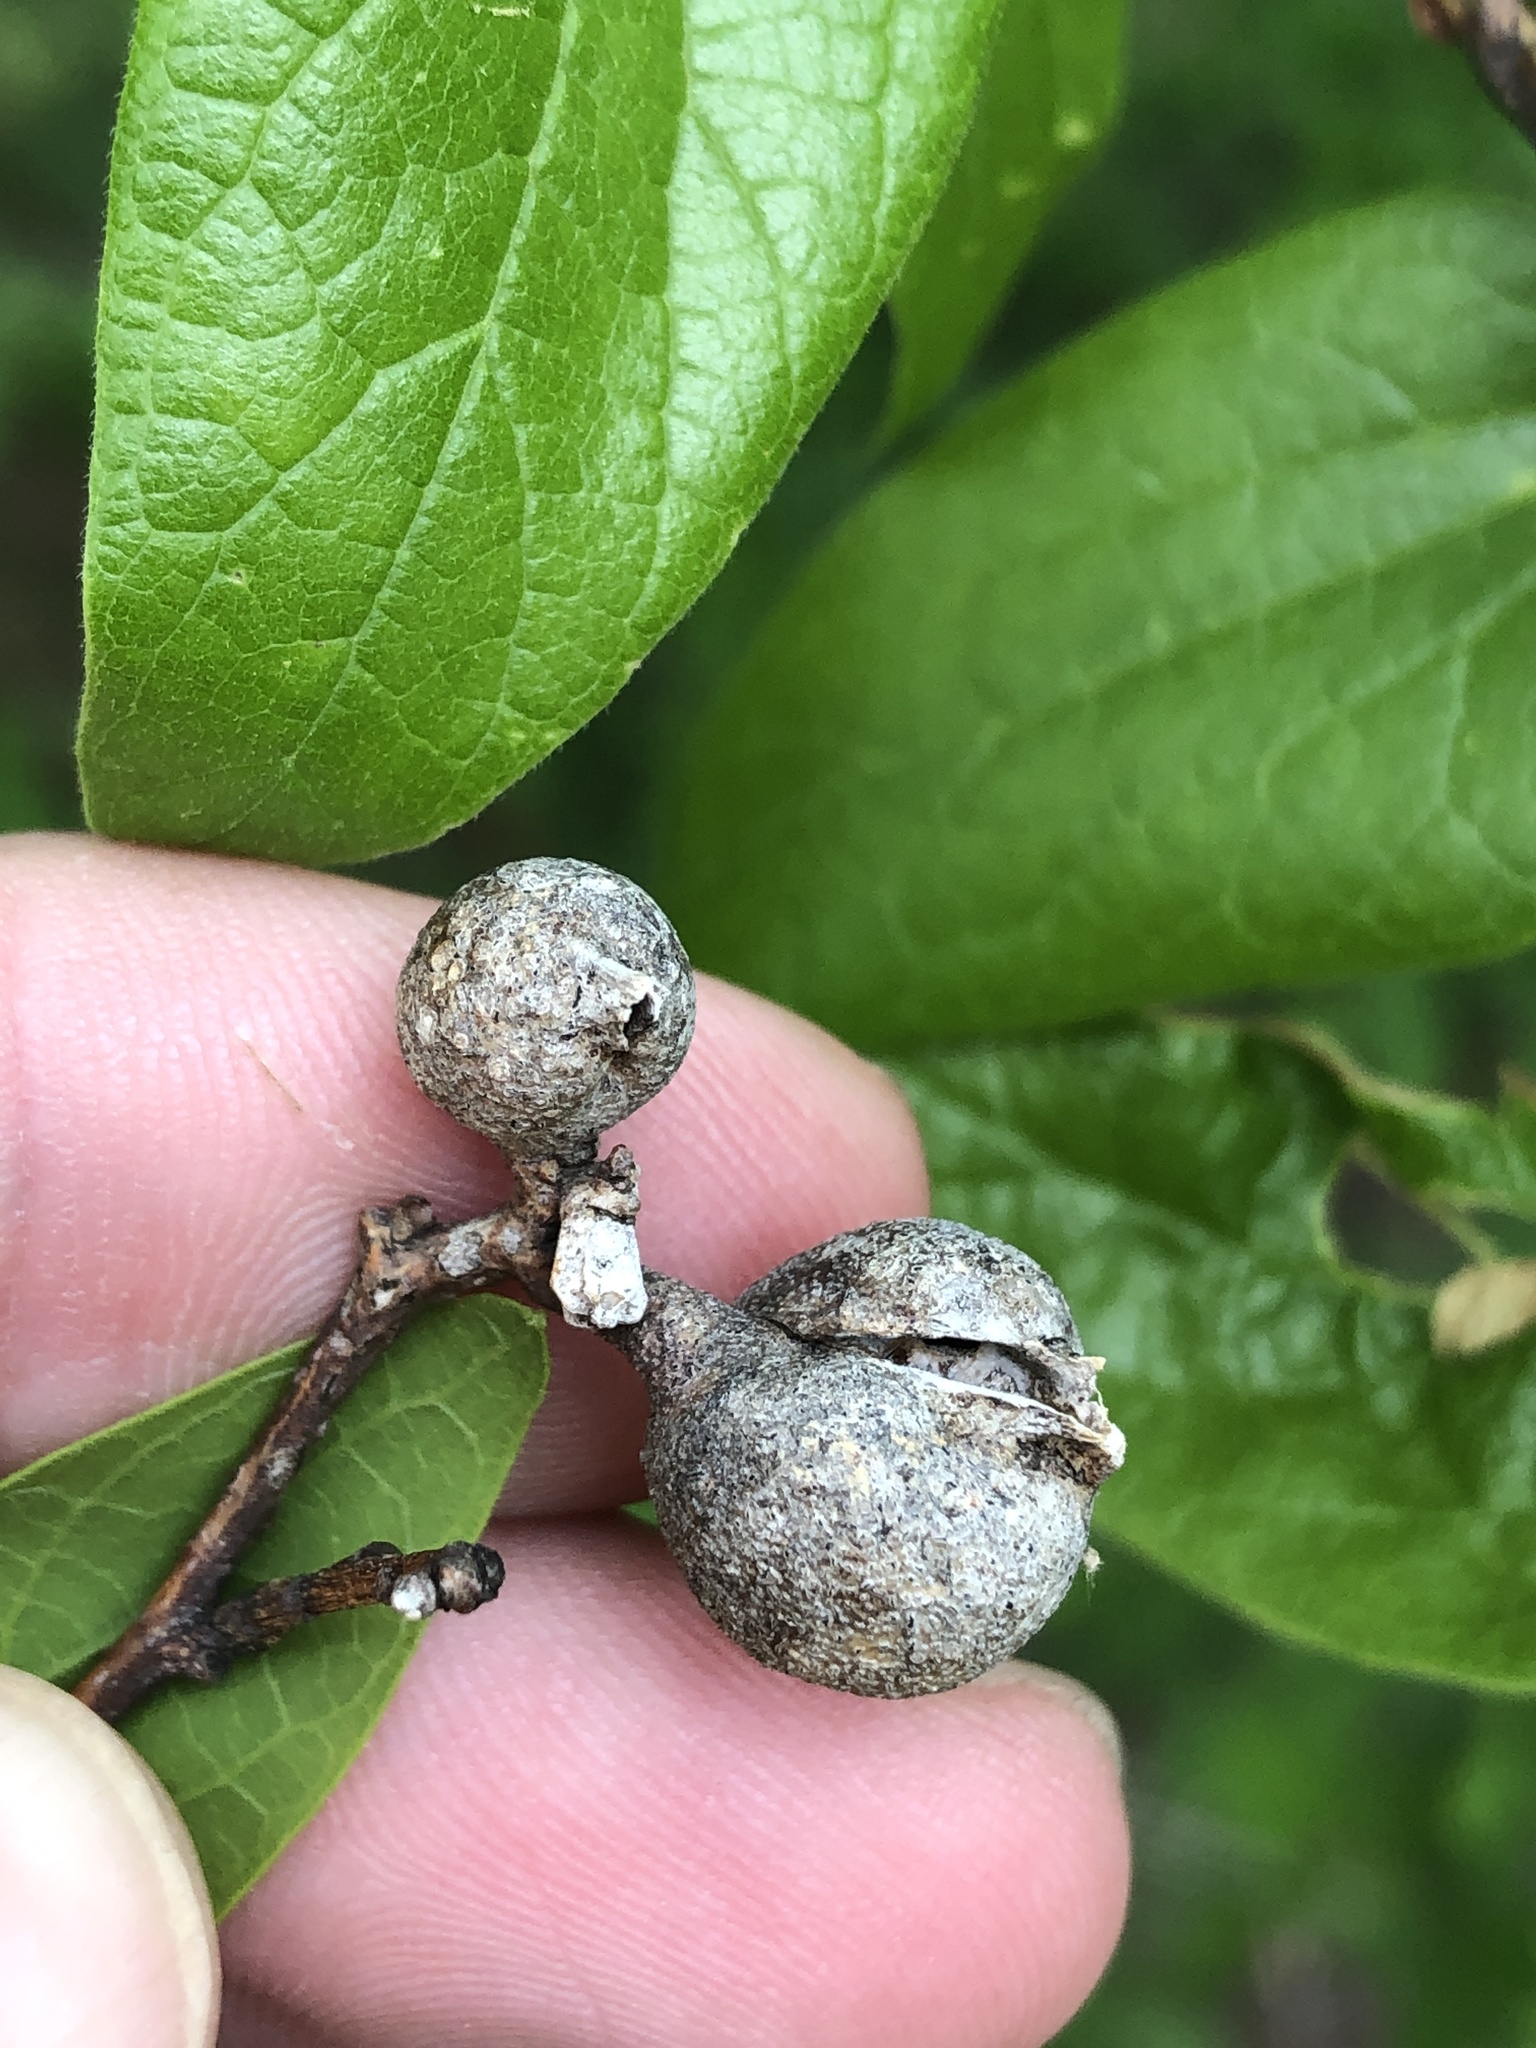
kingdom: Animalia
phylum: Arthropoda
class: Insecta
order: Hemiptera
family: Aphalaridae
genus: Pachypsylla
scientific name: Pachypsylla venusta
